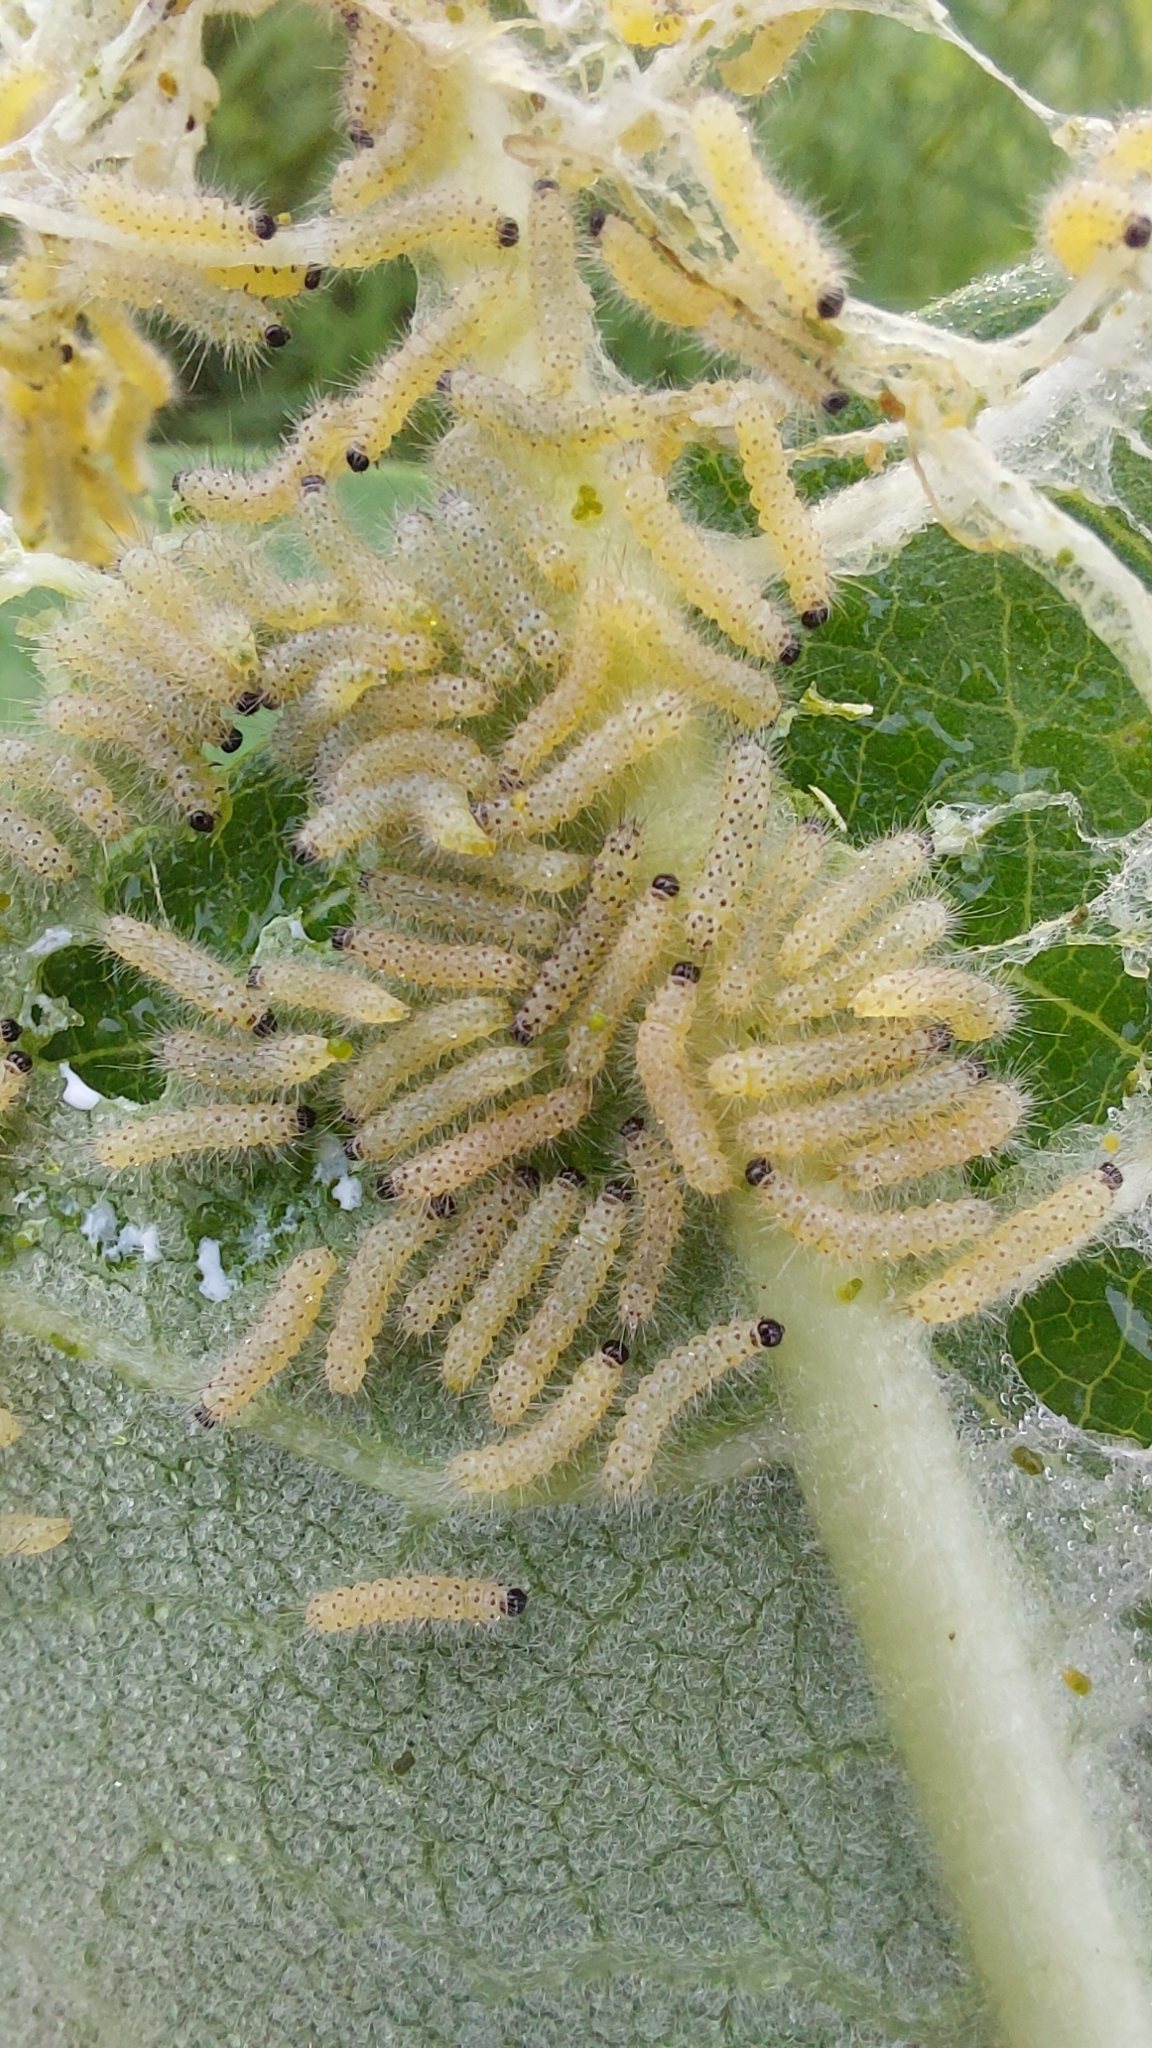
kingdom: Animalia
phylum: Arthropoda
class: Insecta
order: Lepidoptera
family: Erebidae
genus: Euchaetes
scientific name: Euchaetes egle
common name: Milkweed tussock moth
